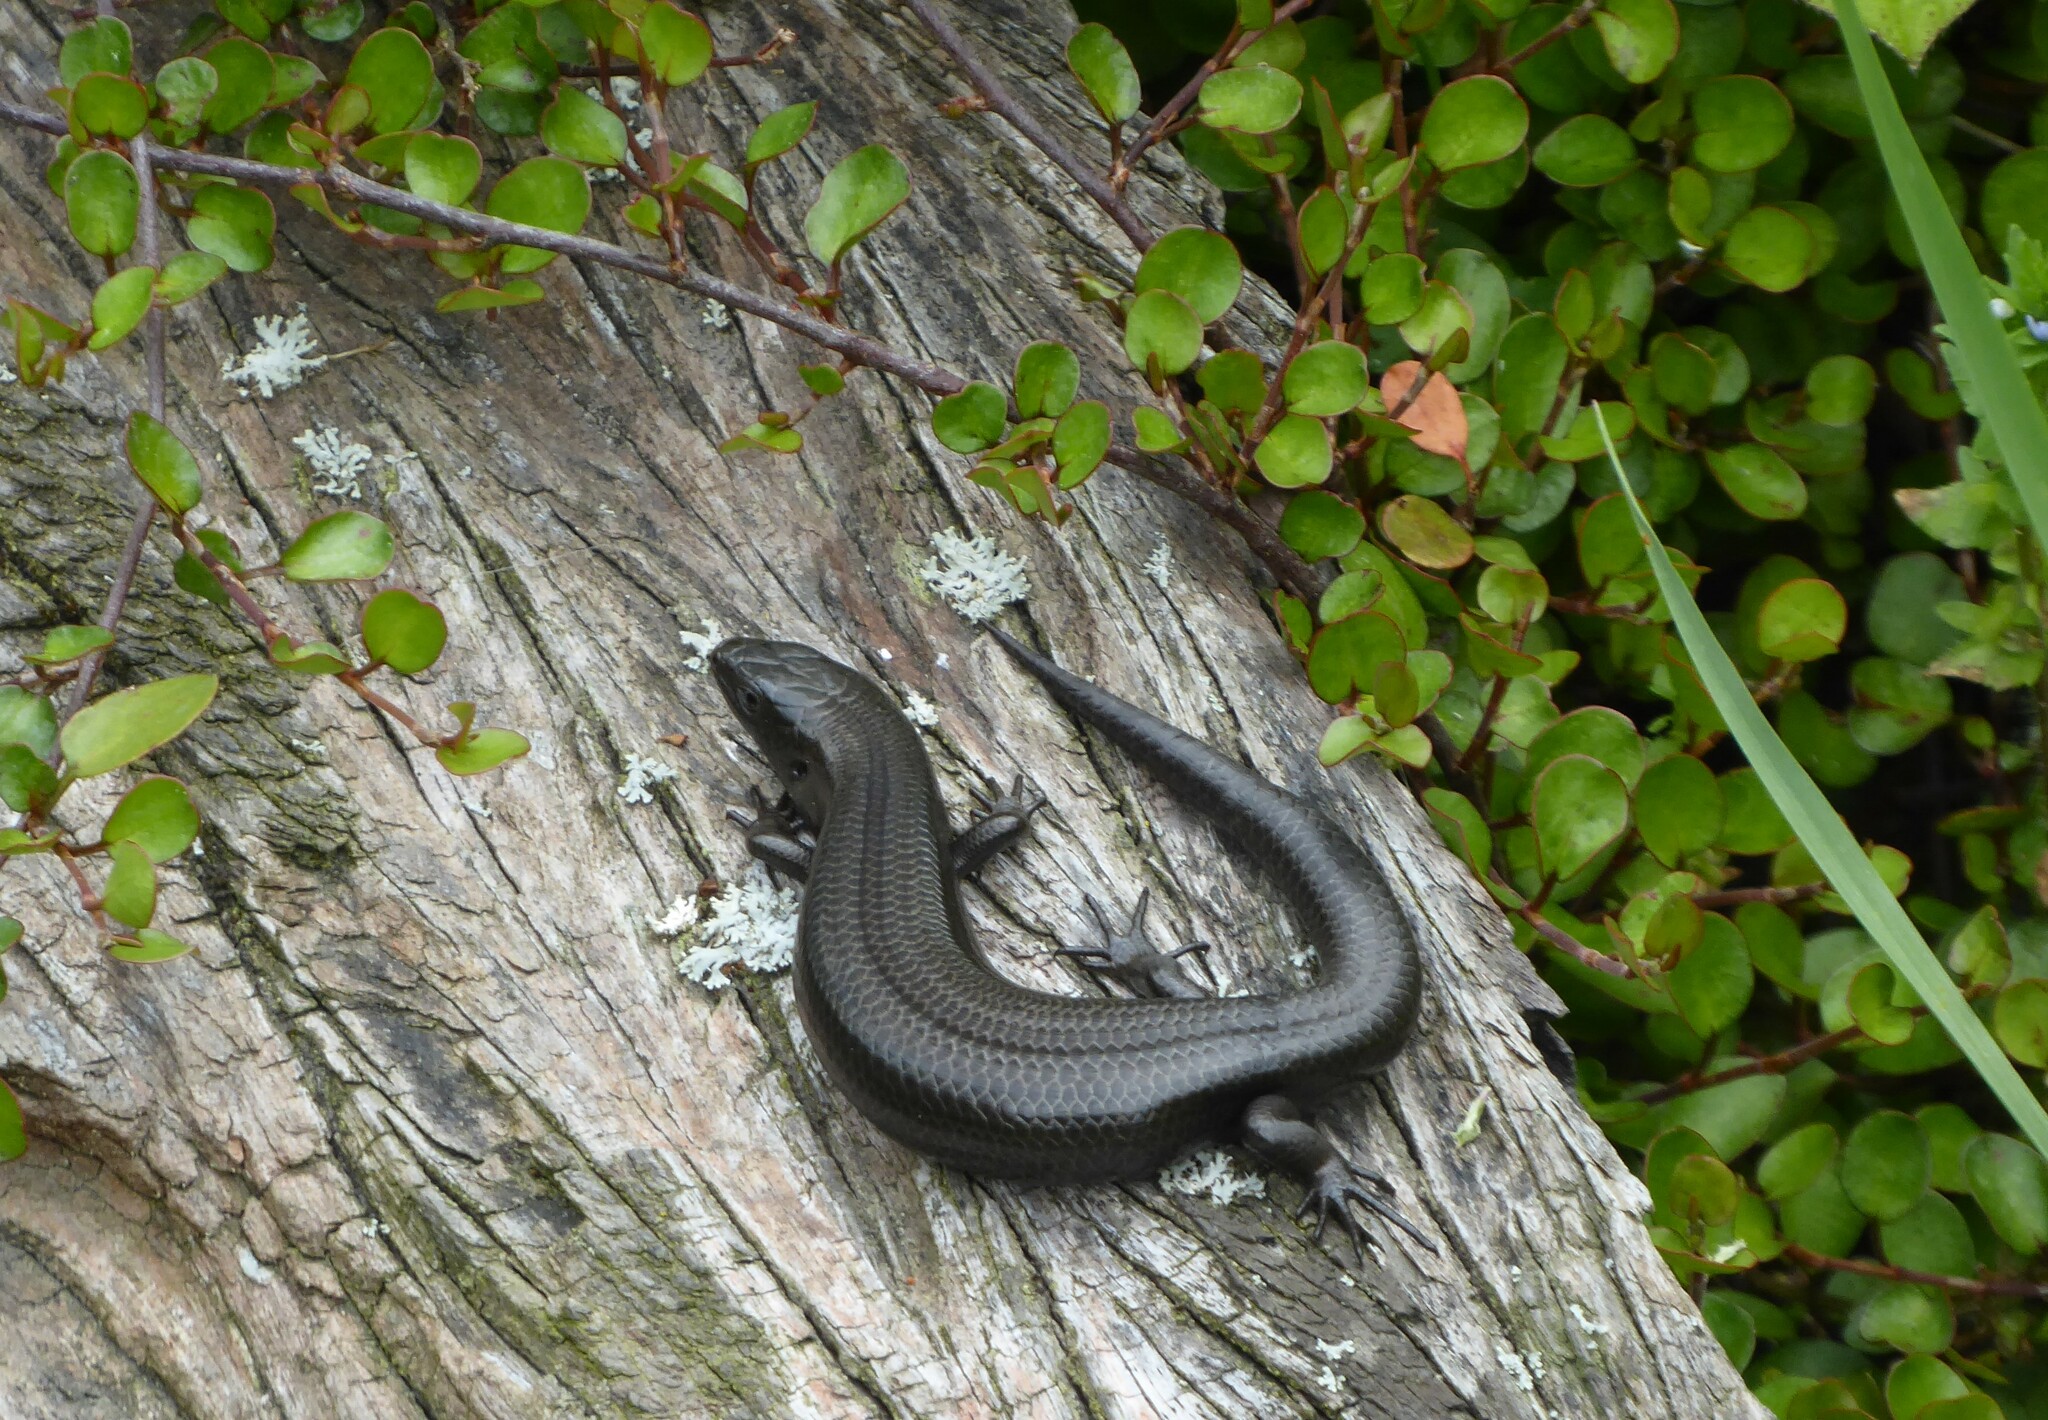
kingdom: Animalia
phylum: Chordata
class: Squamata
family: Scincidae
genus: Oligosoma
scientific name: Oligosoma polychroma
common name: Common new zealand skink
